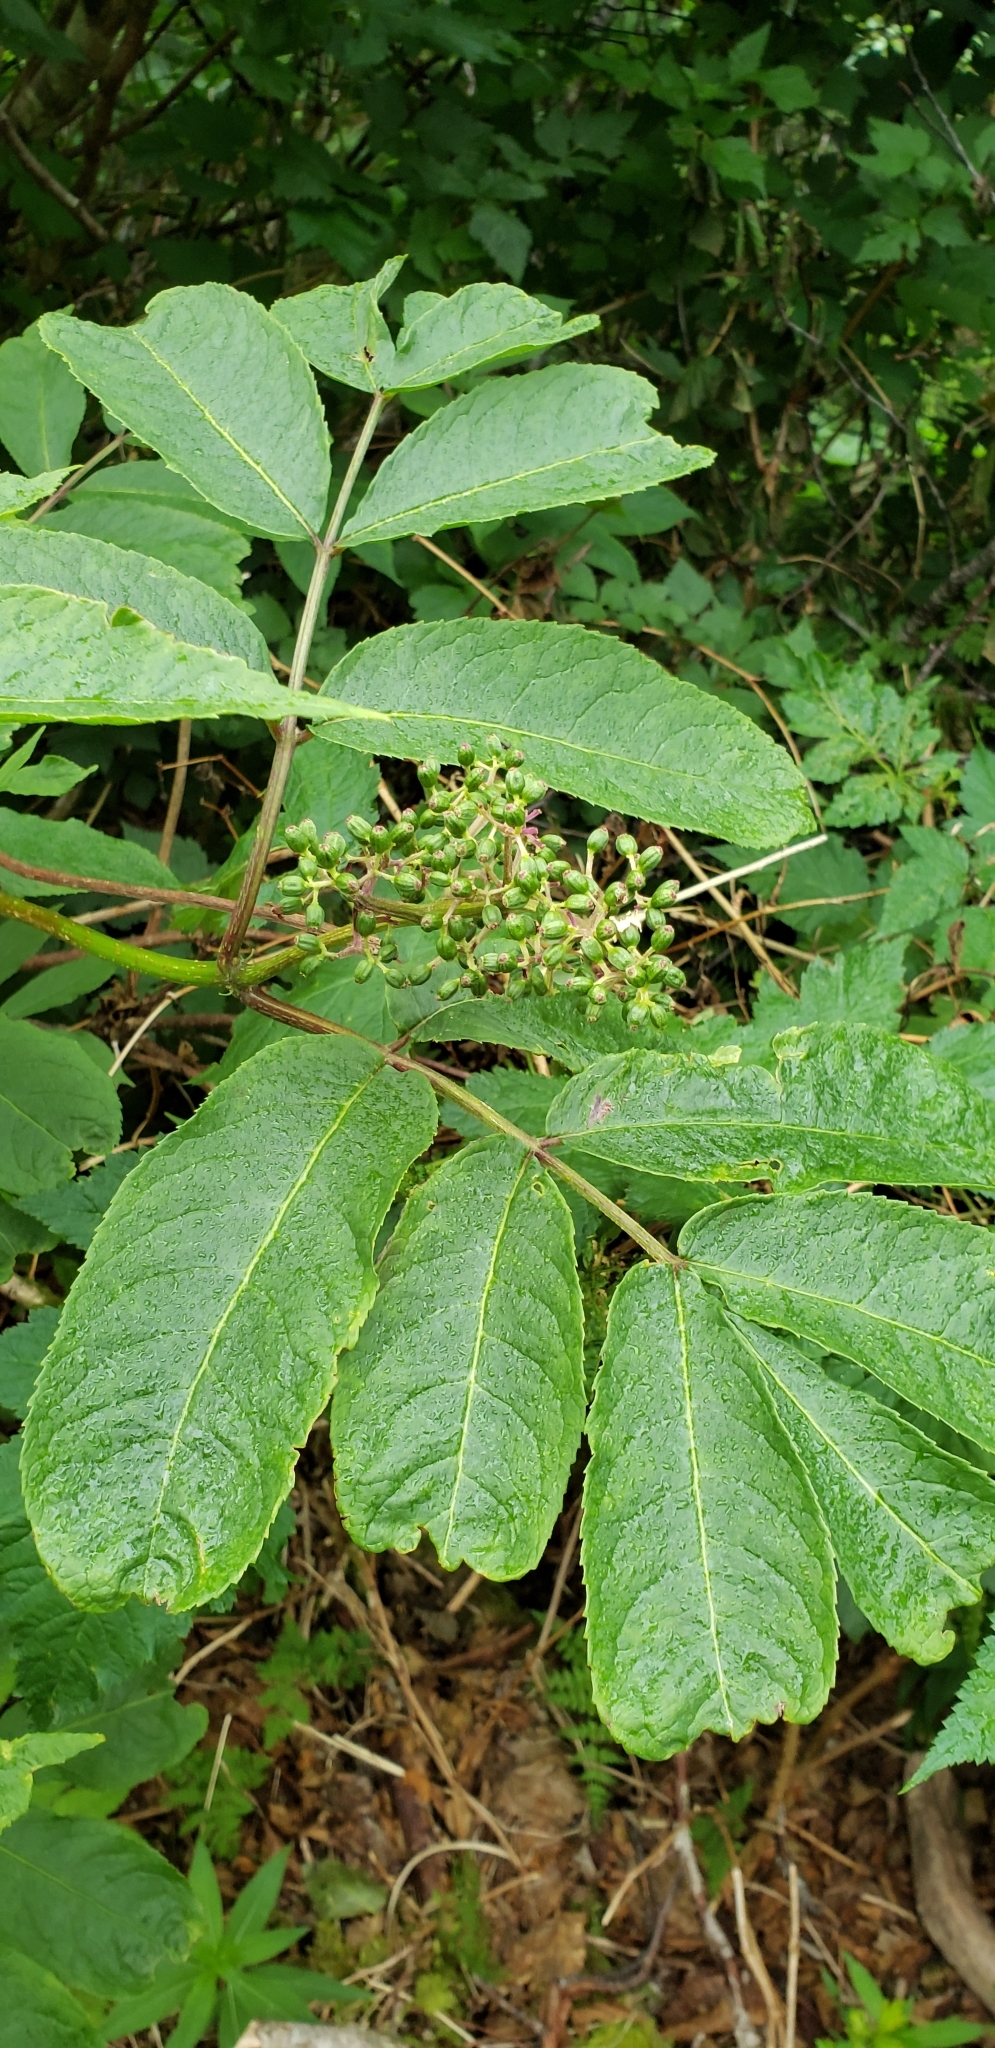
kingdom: Plantae
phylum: Tracheophyta
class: Magnoliopsida
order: Dipsacales
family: Viburnaceae
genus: Sambucus
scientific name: Sambucus racemosa
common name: Red-berried elder
